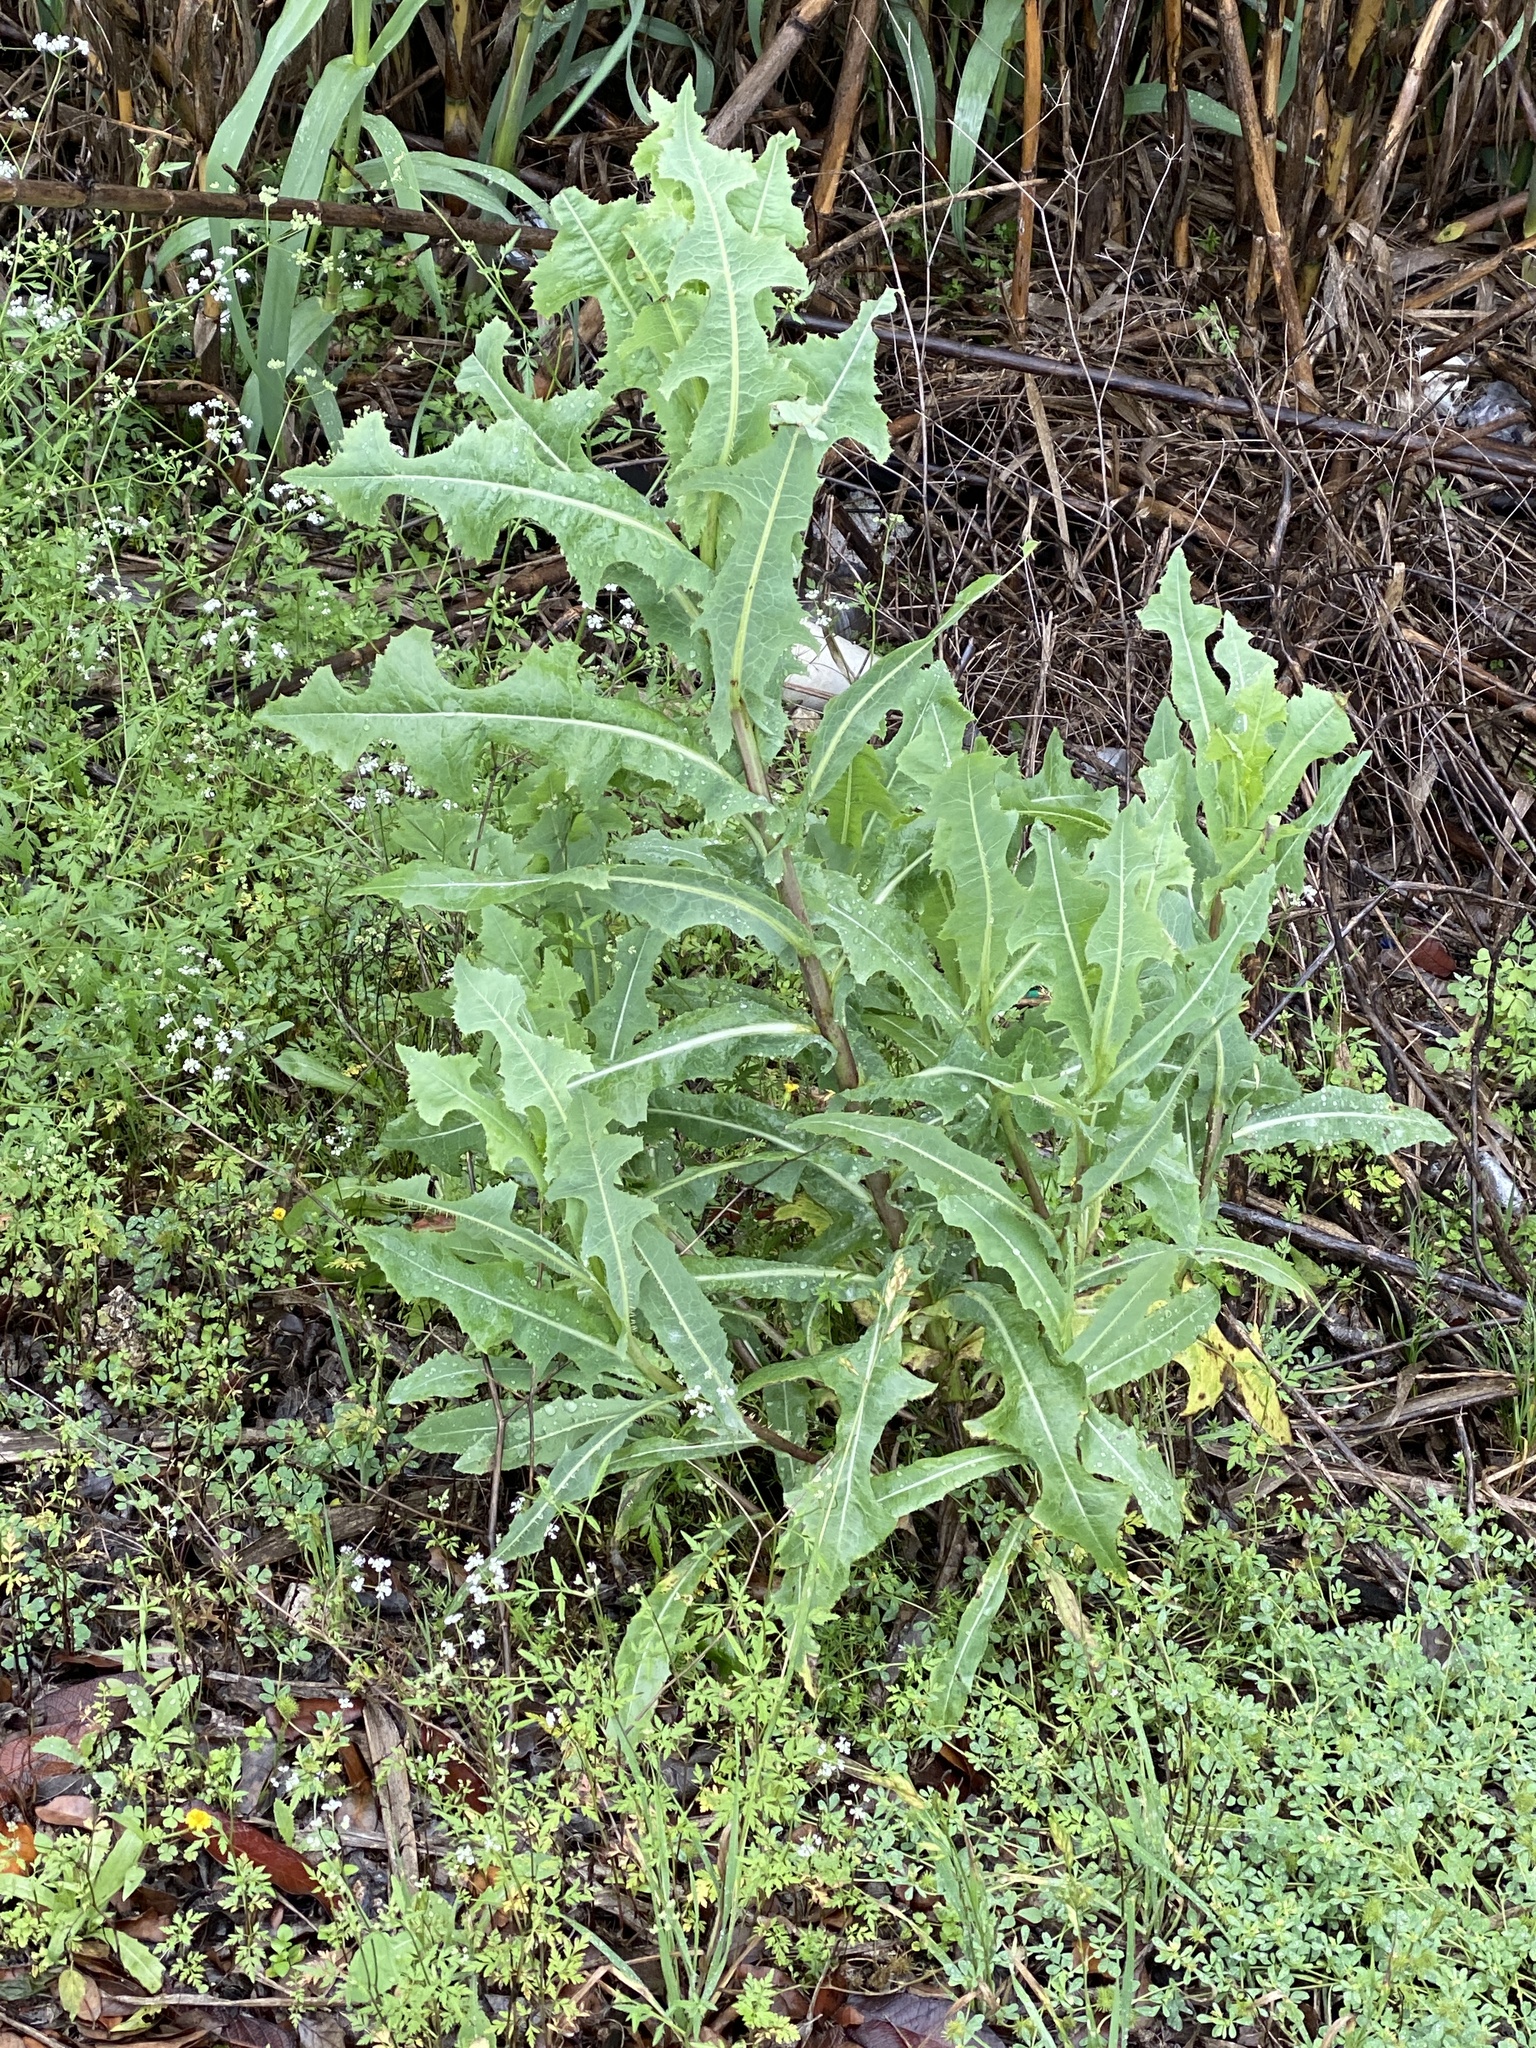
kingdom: Plantae
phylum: Tracheophyta
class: Magnoliopsida
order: Asterales
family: Asteraceae
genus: Lactuca
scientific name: Lactuca serriola
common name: Prickly lettuce
